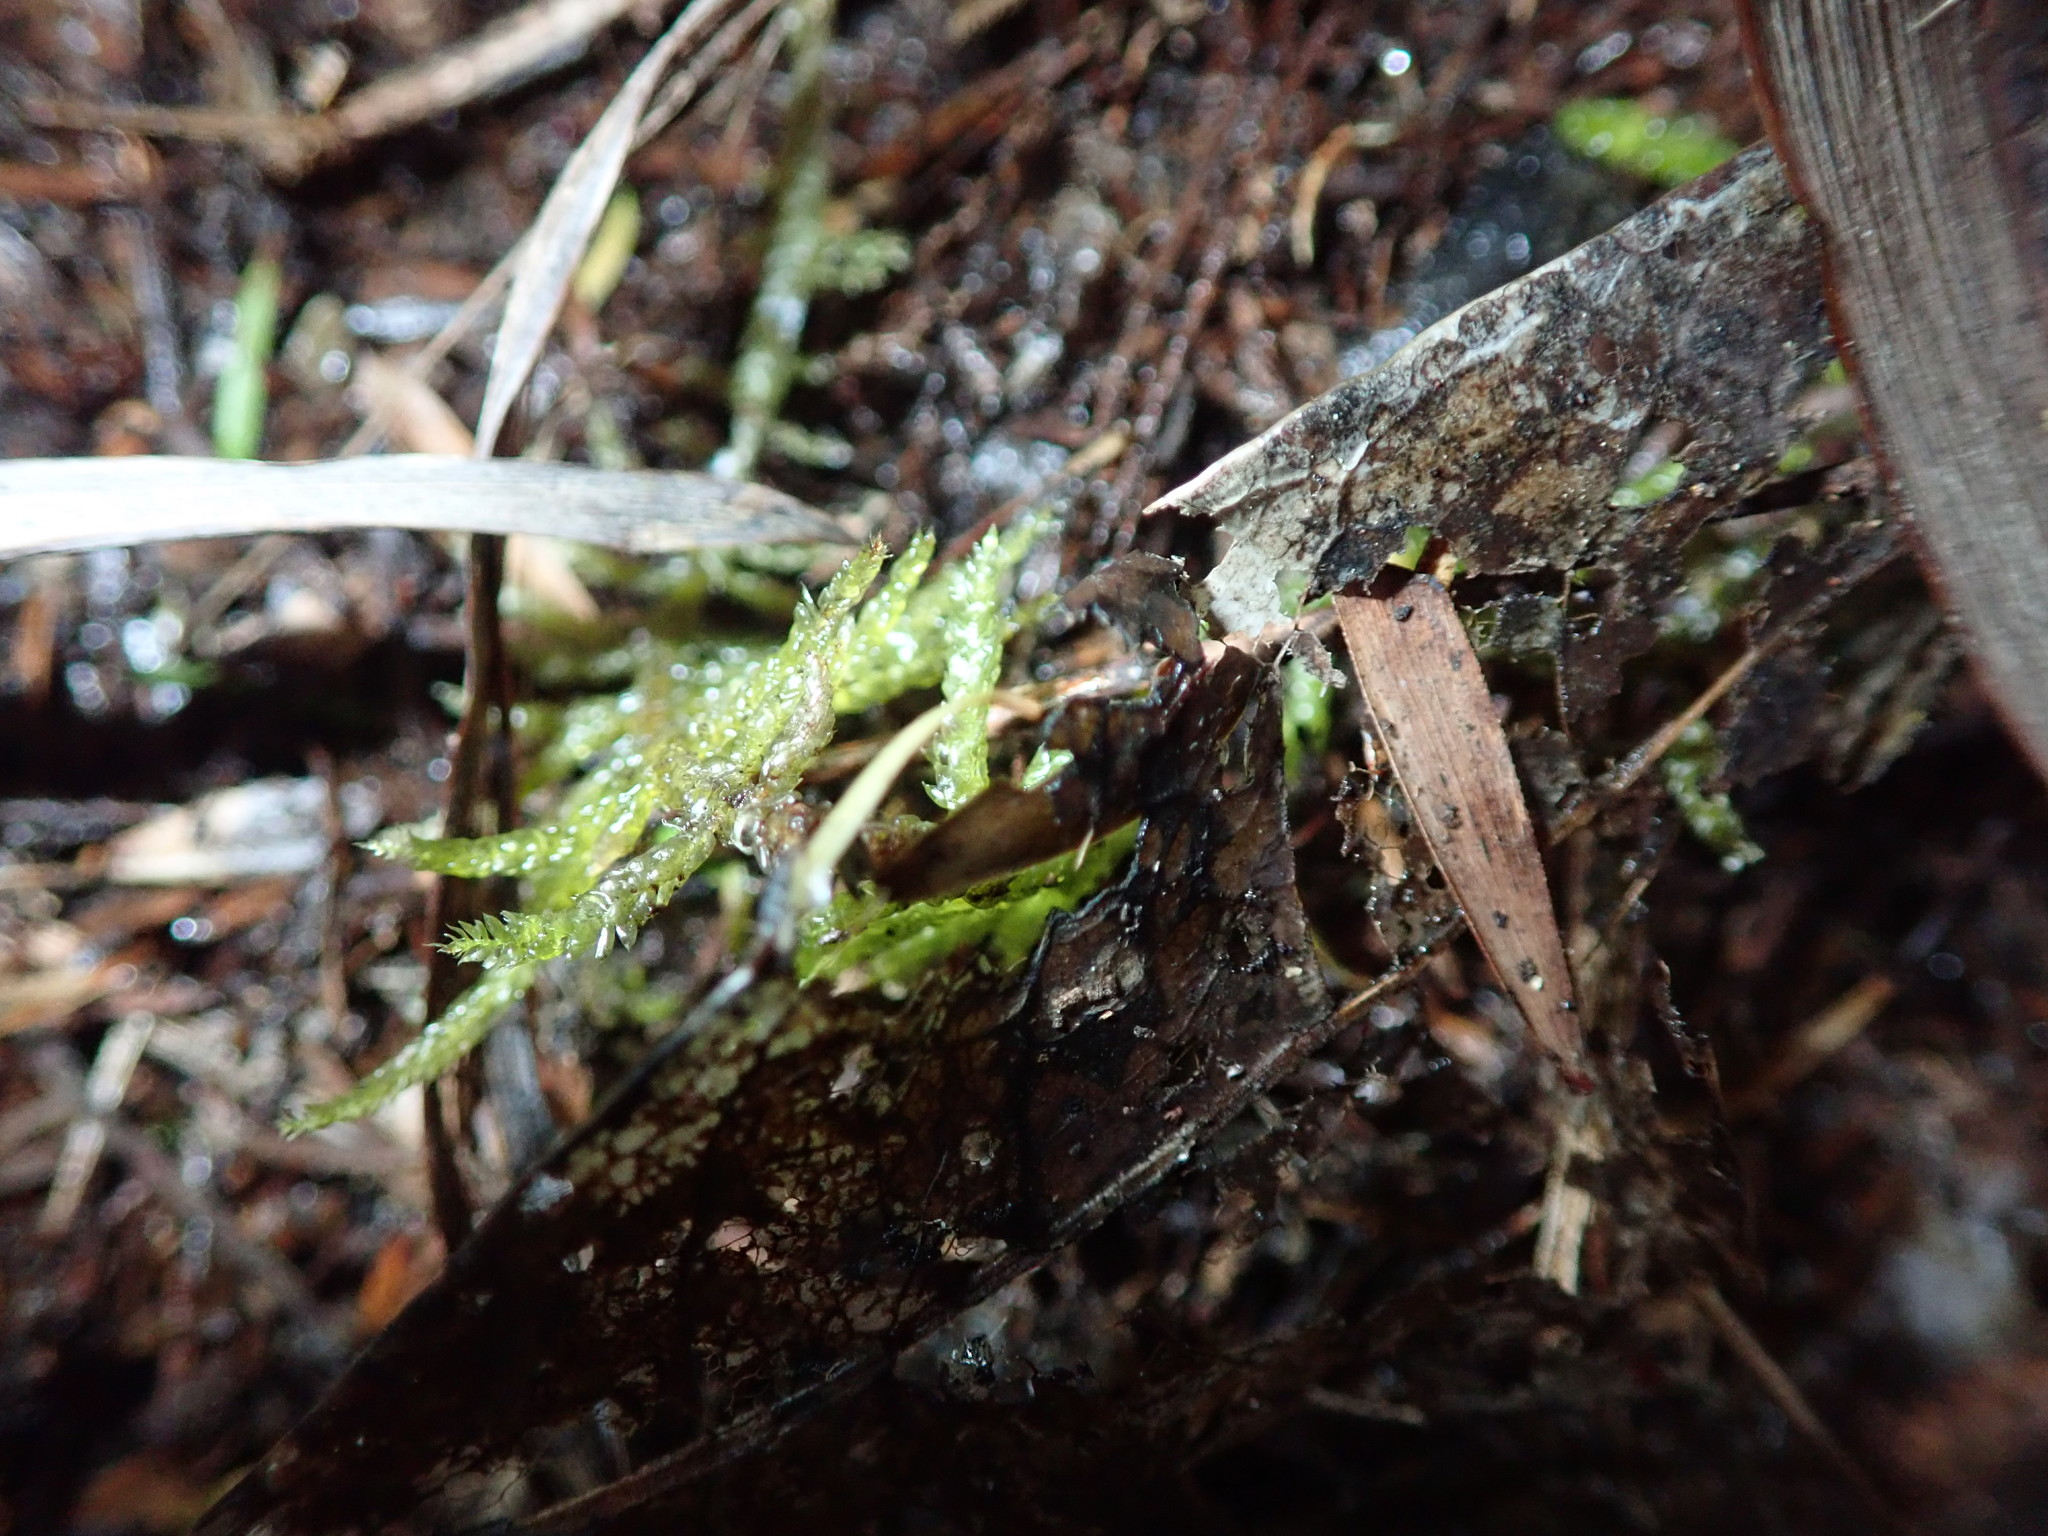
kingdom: Plantae
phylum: Bryophyta
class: Bryopsida
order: Hypnales
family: Brachytheciaceae
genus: Pseudoscleropodium
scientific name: Pseudoscleropodium purum
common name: Neat feather-moss
